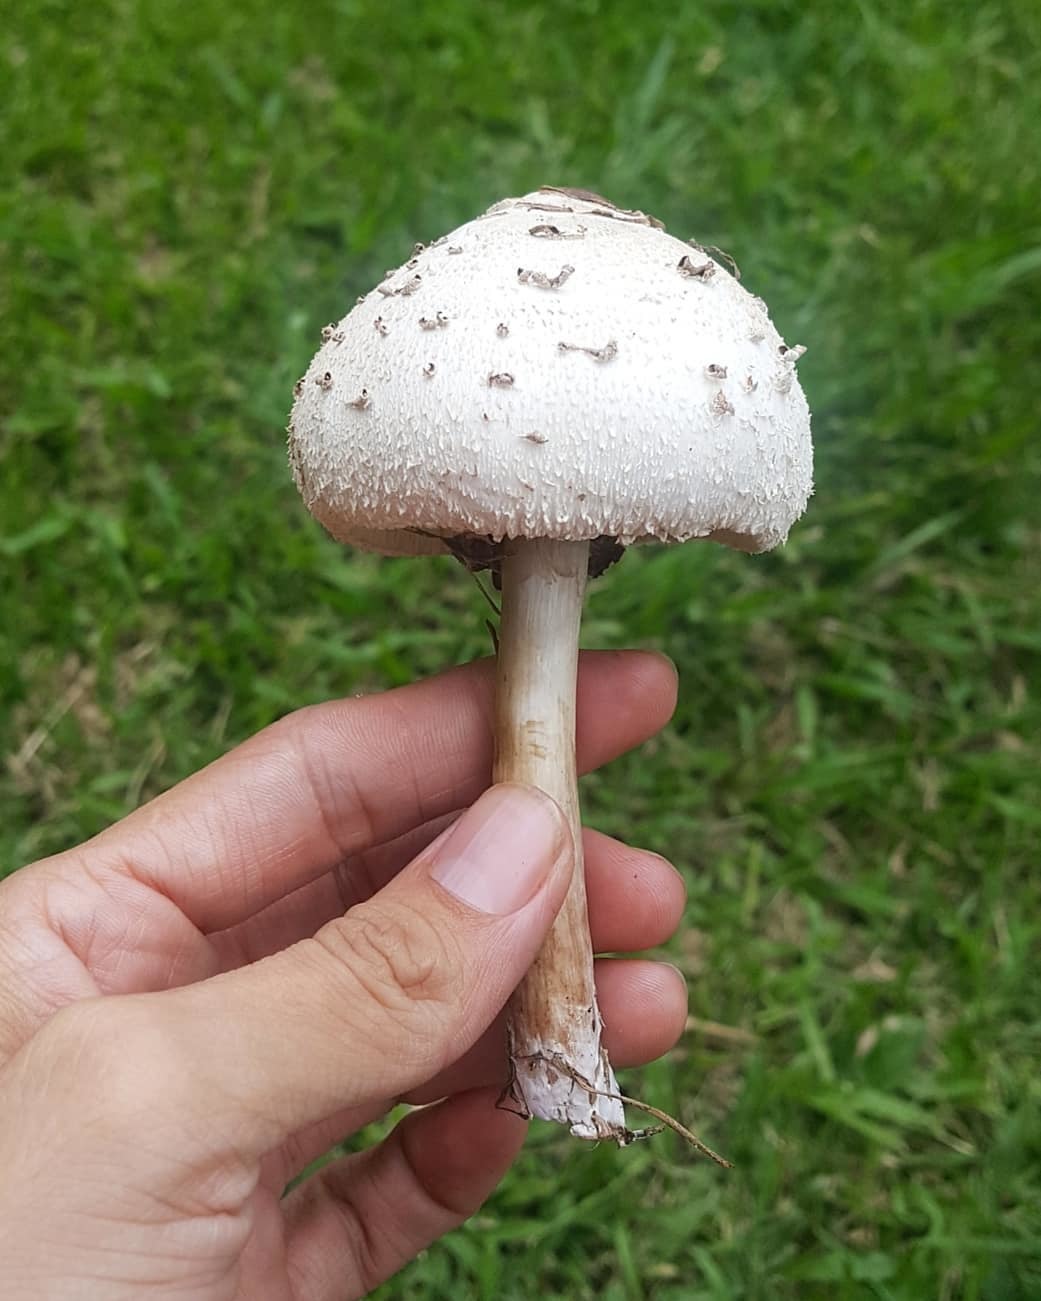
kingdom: Fungi
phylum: Basidiomycota
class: Agaricomycetes
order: Agaricales
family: Agaricaceae
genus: Chlorophyllum
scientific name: Chlorophyllum molybdites
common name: False parasol
